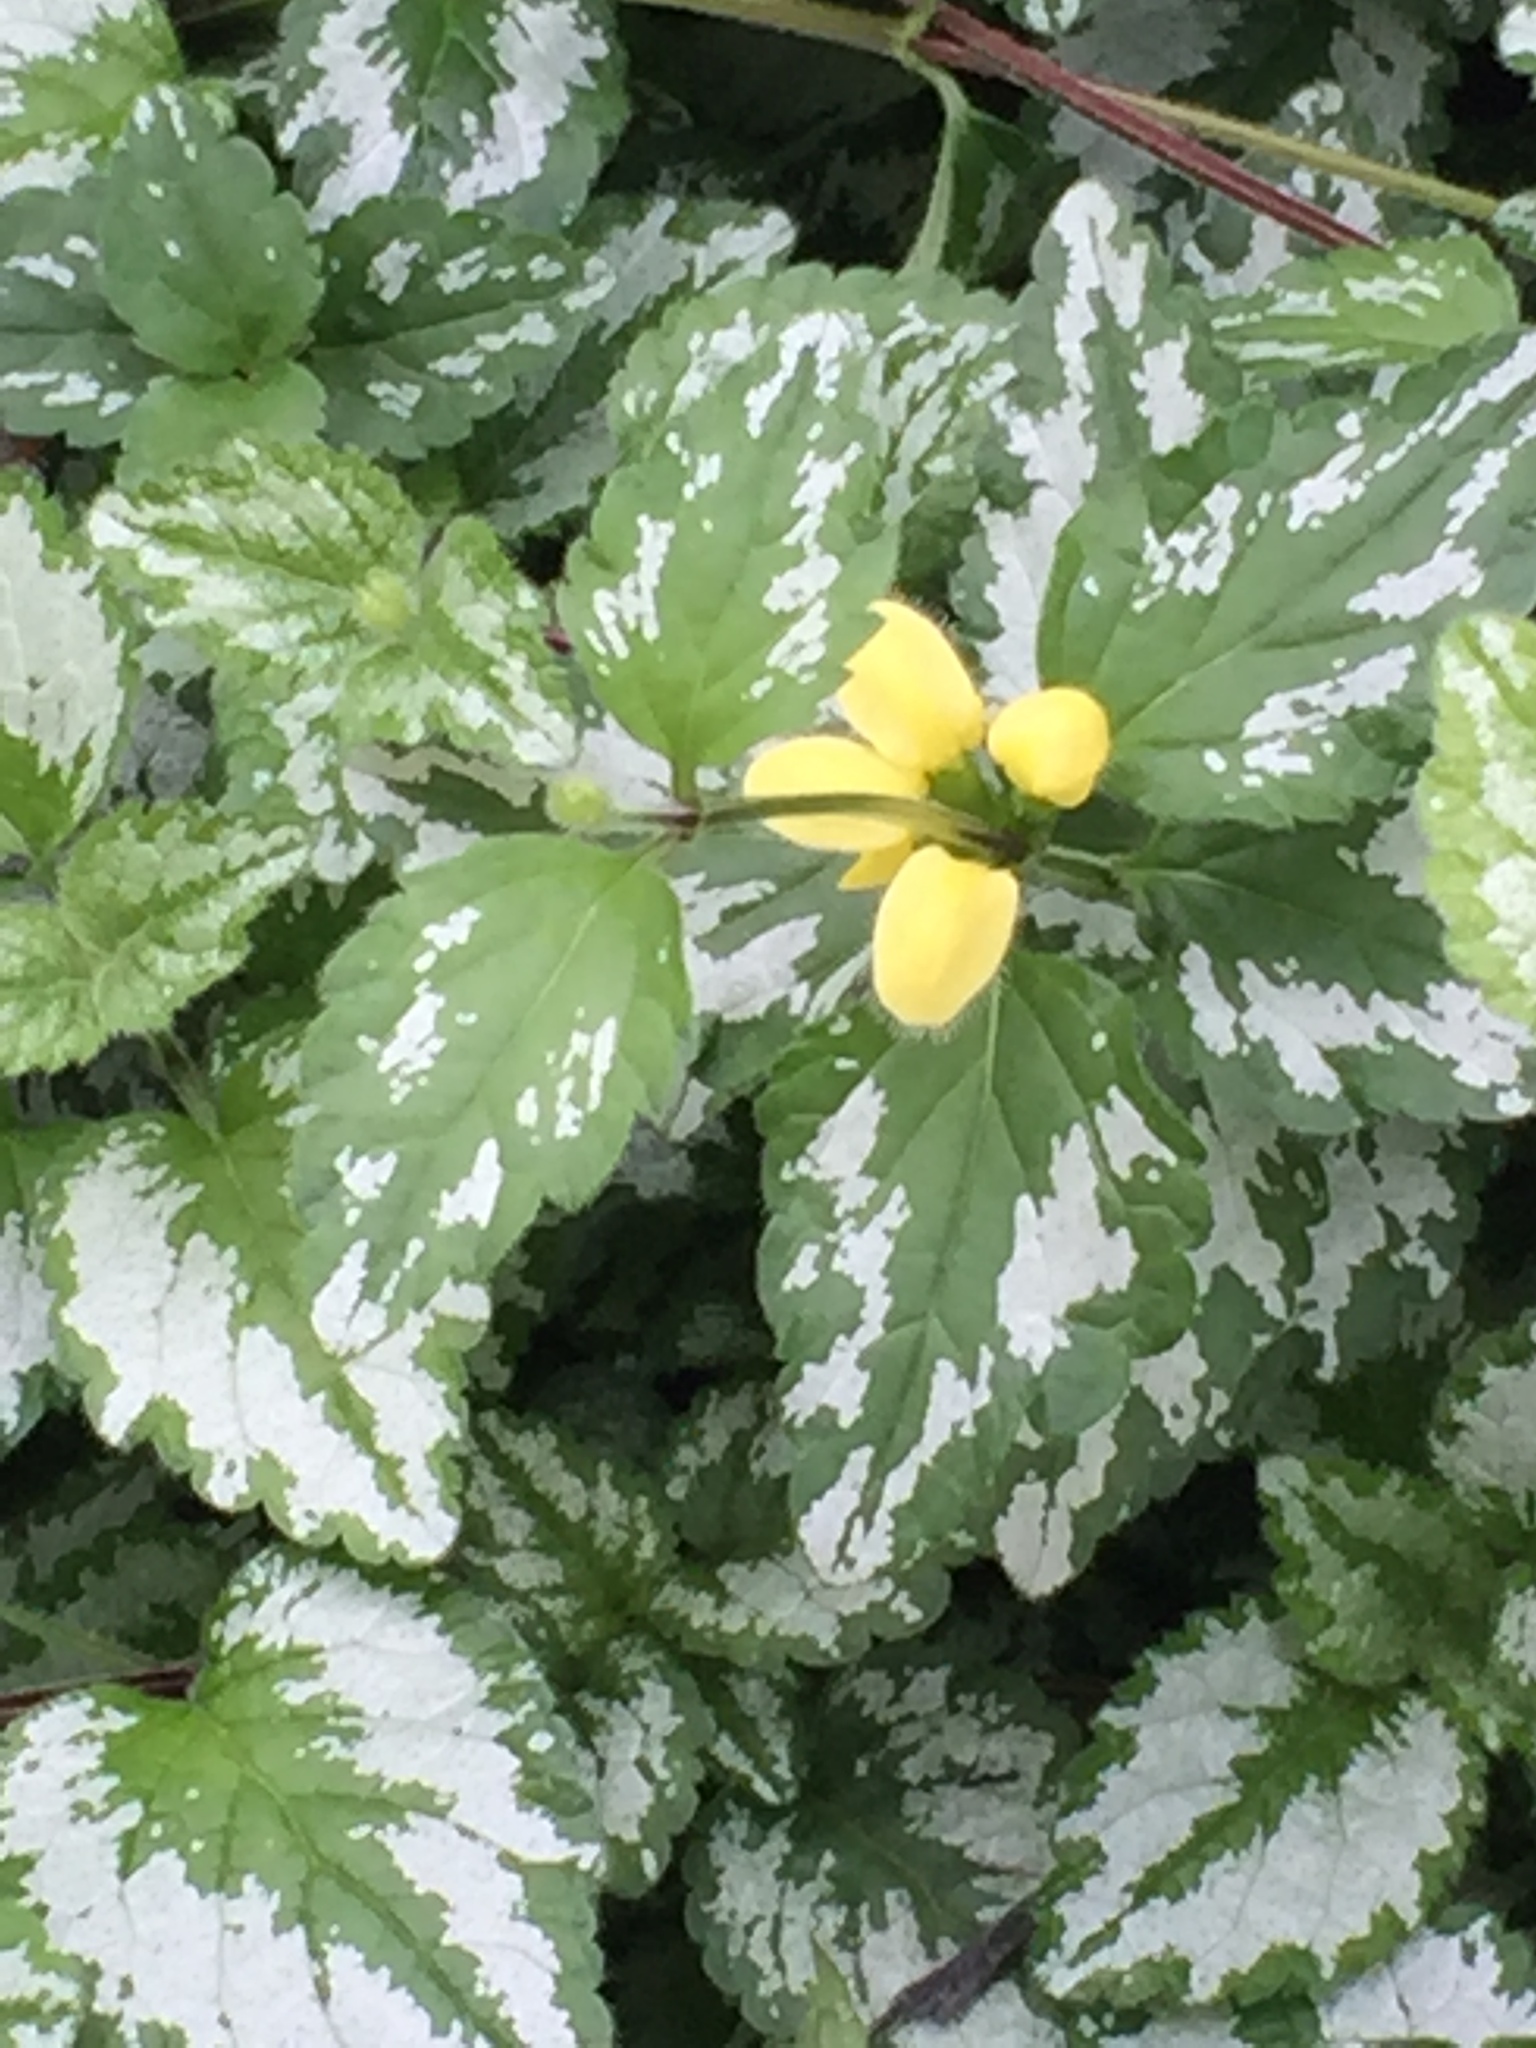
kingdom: Plantae
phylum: Tracheophyta
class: Magnoliopsida
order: Lamiales
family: Lamiaceae
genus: Lamium
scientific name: Lamium galeobdolon
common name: Yellow archangel
